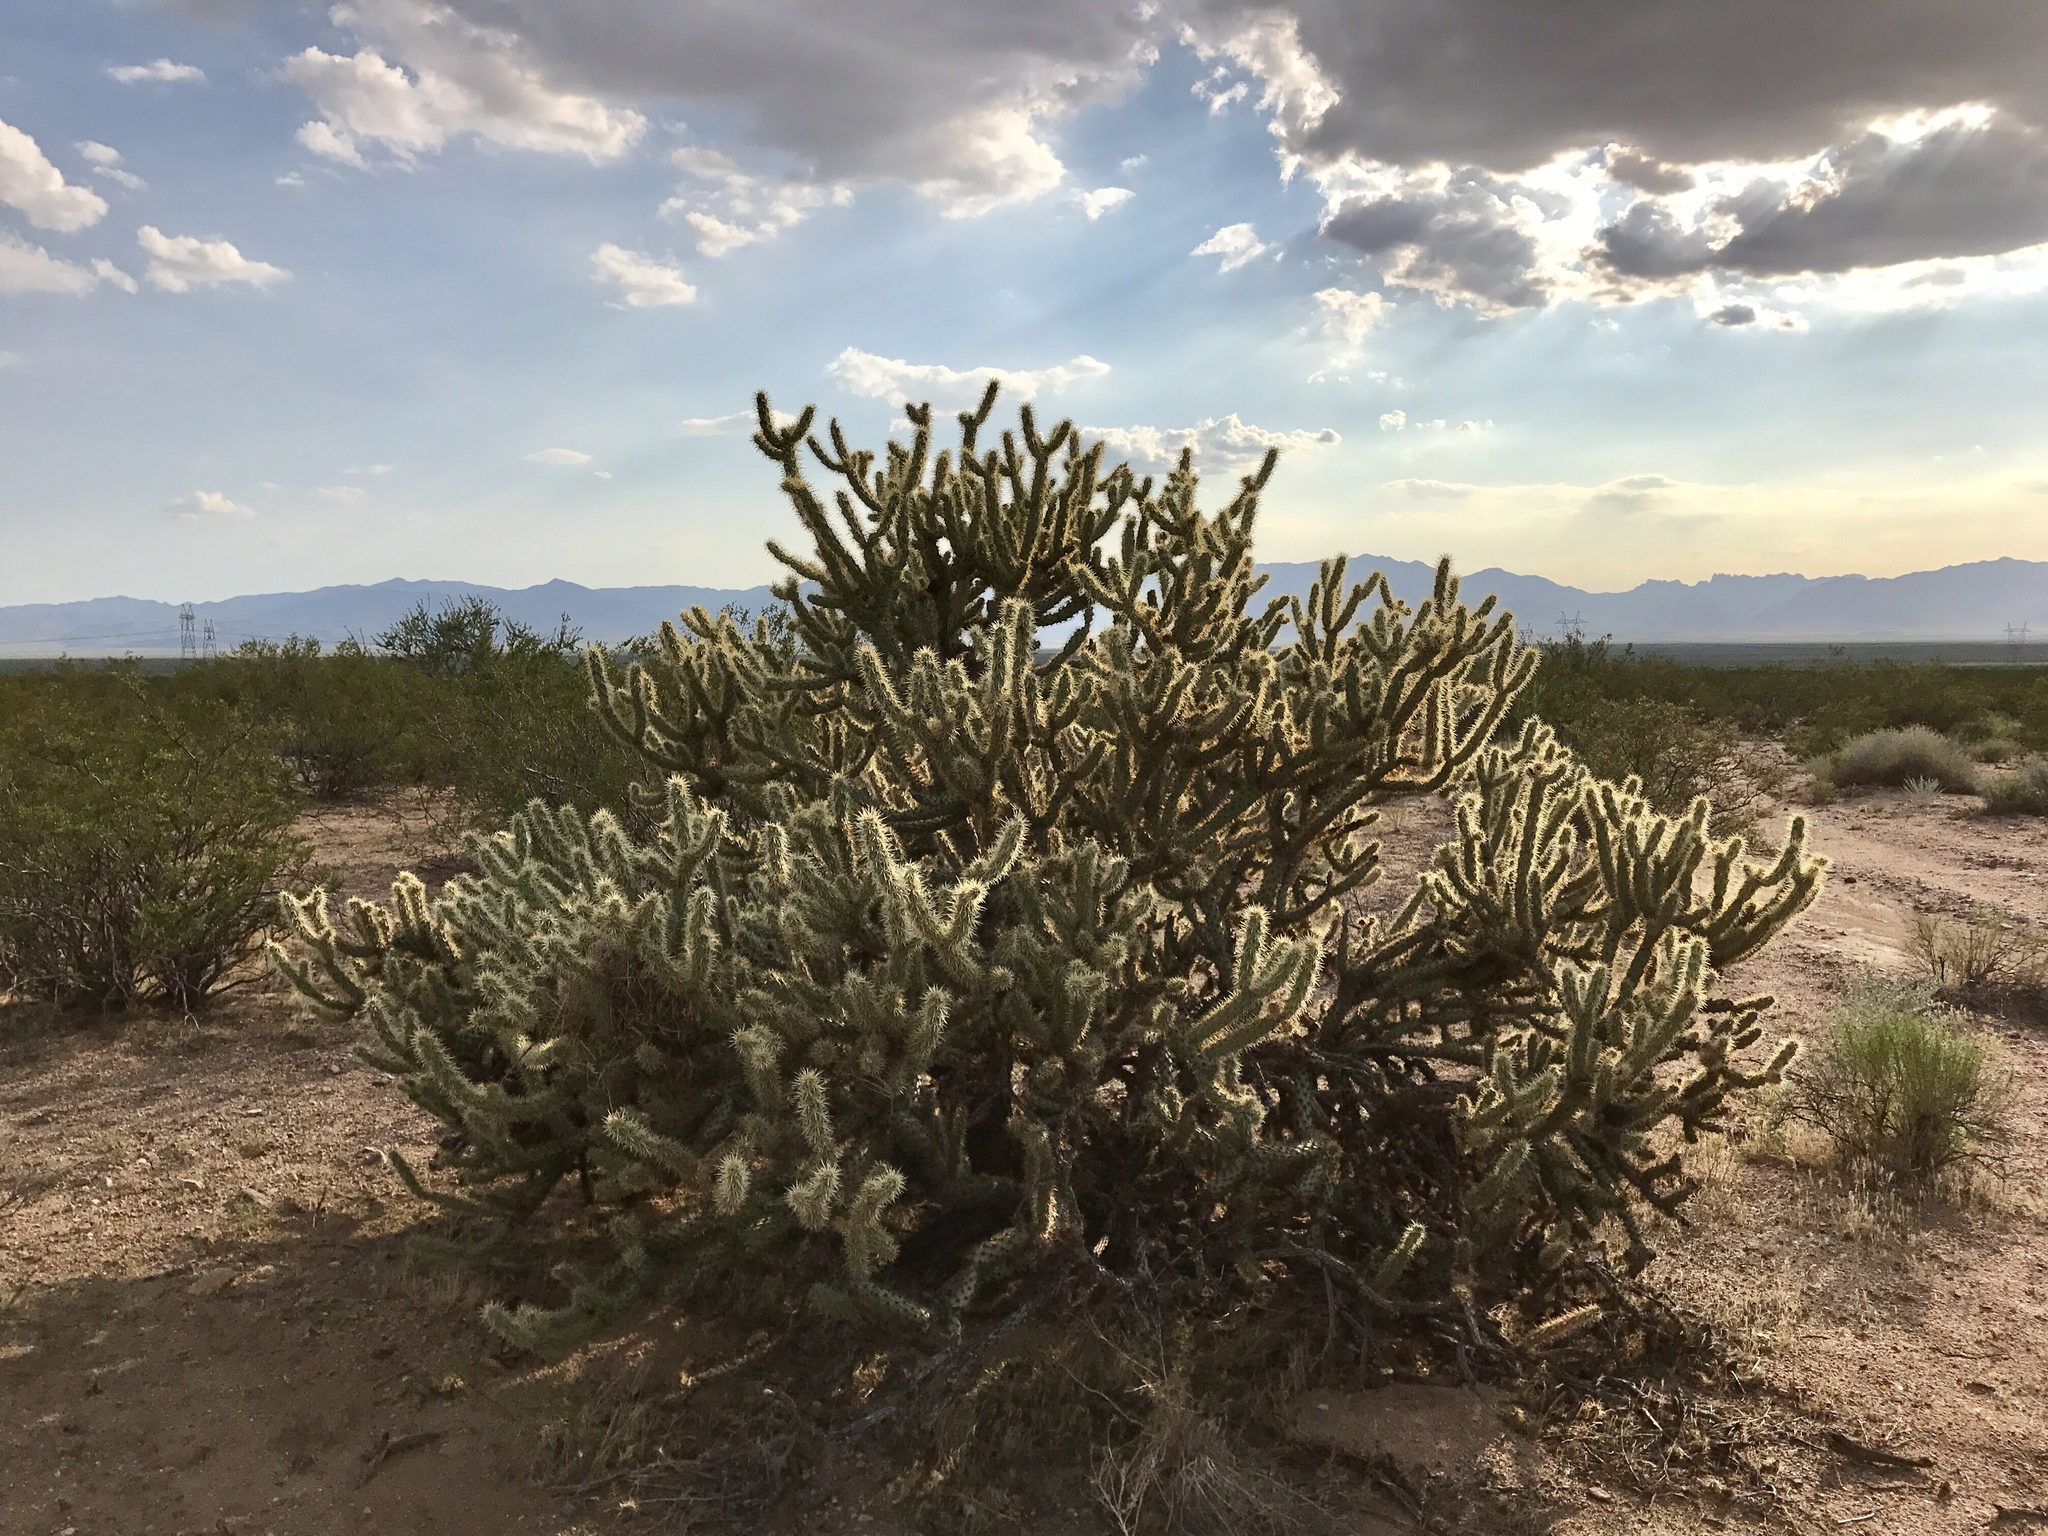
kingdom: Plantae
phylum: Tracheophyta
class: Magnoliopsida
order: Caryophyllales
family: Cactaceae
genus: Cylindropuntia
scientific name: Cylindropuntia acanthocarpa
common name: Buckhorn cholla
